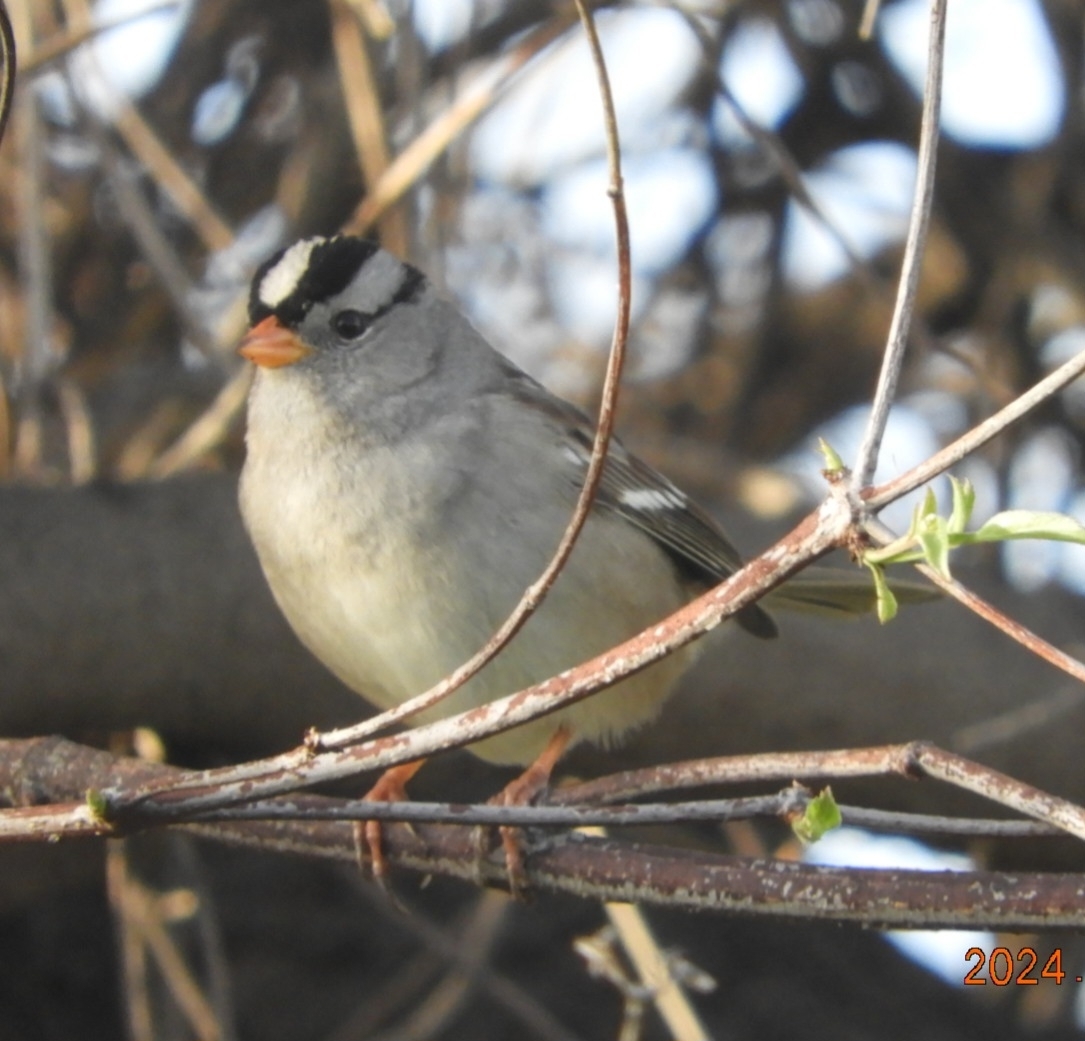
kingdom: Animalia
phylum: Chordata
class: Aves
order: Passeriformes
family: Passerellidae
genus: Zonotrichia
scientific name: Zonotrichia leucophrys
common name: White-crowned sparrow
